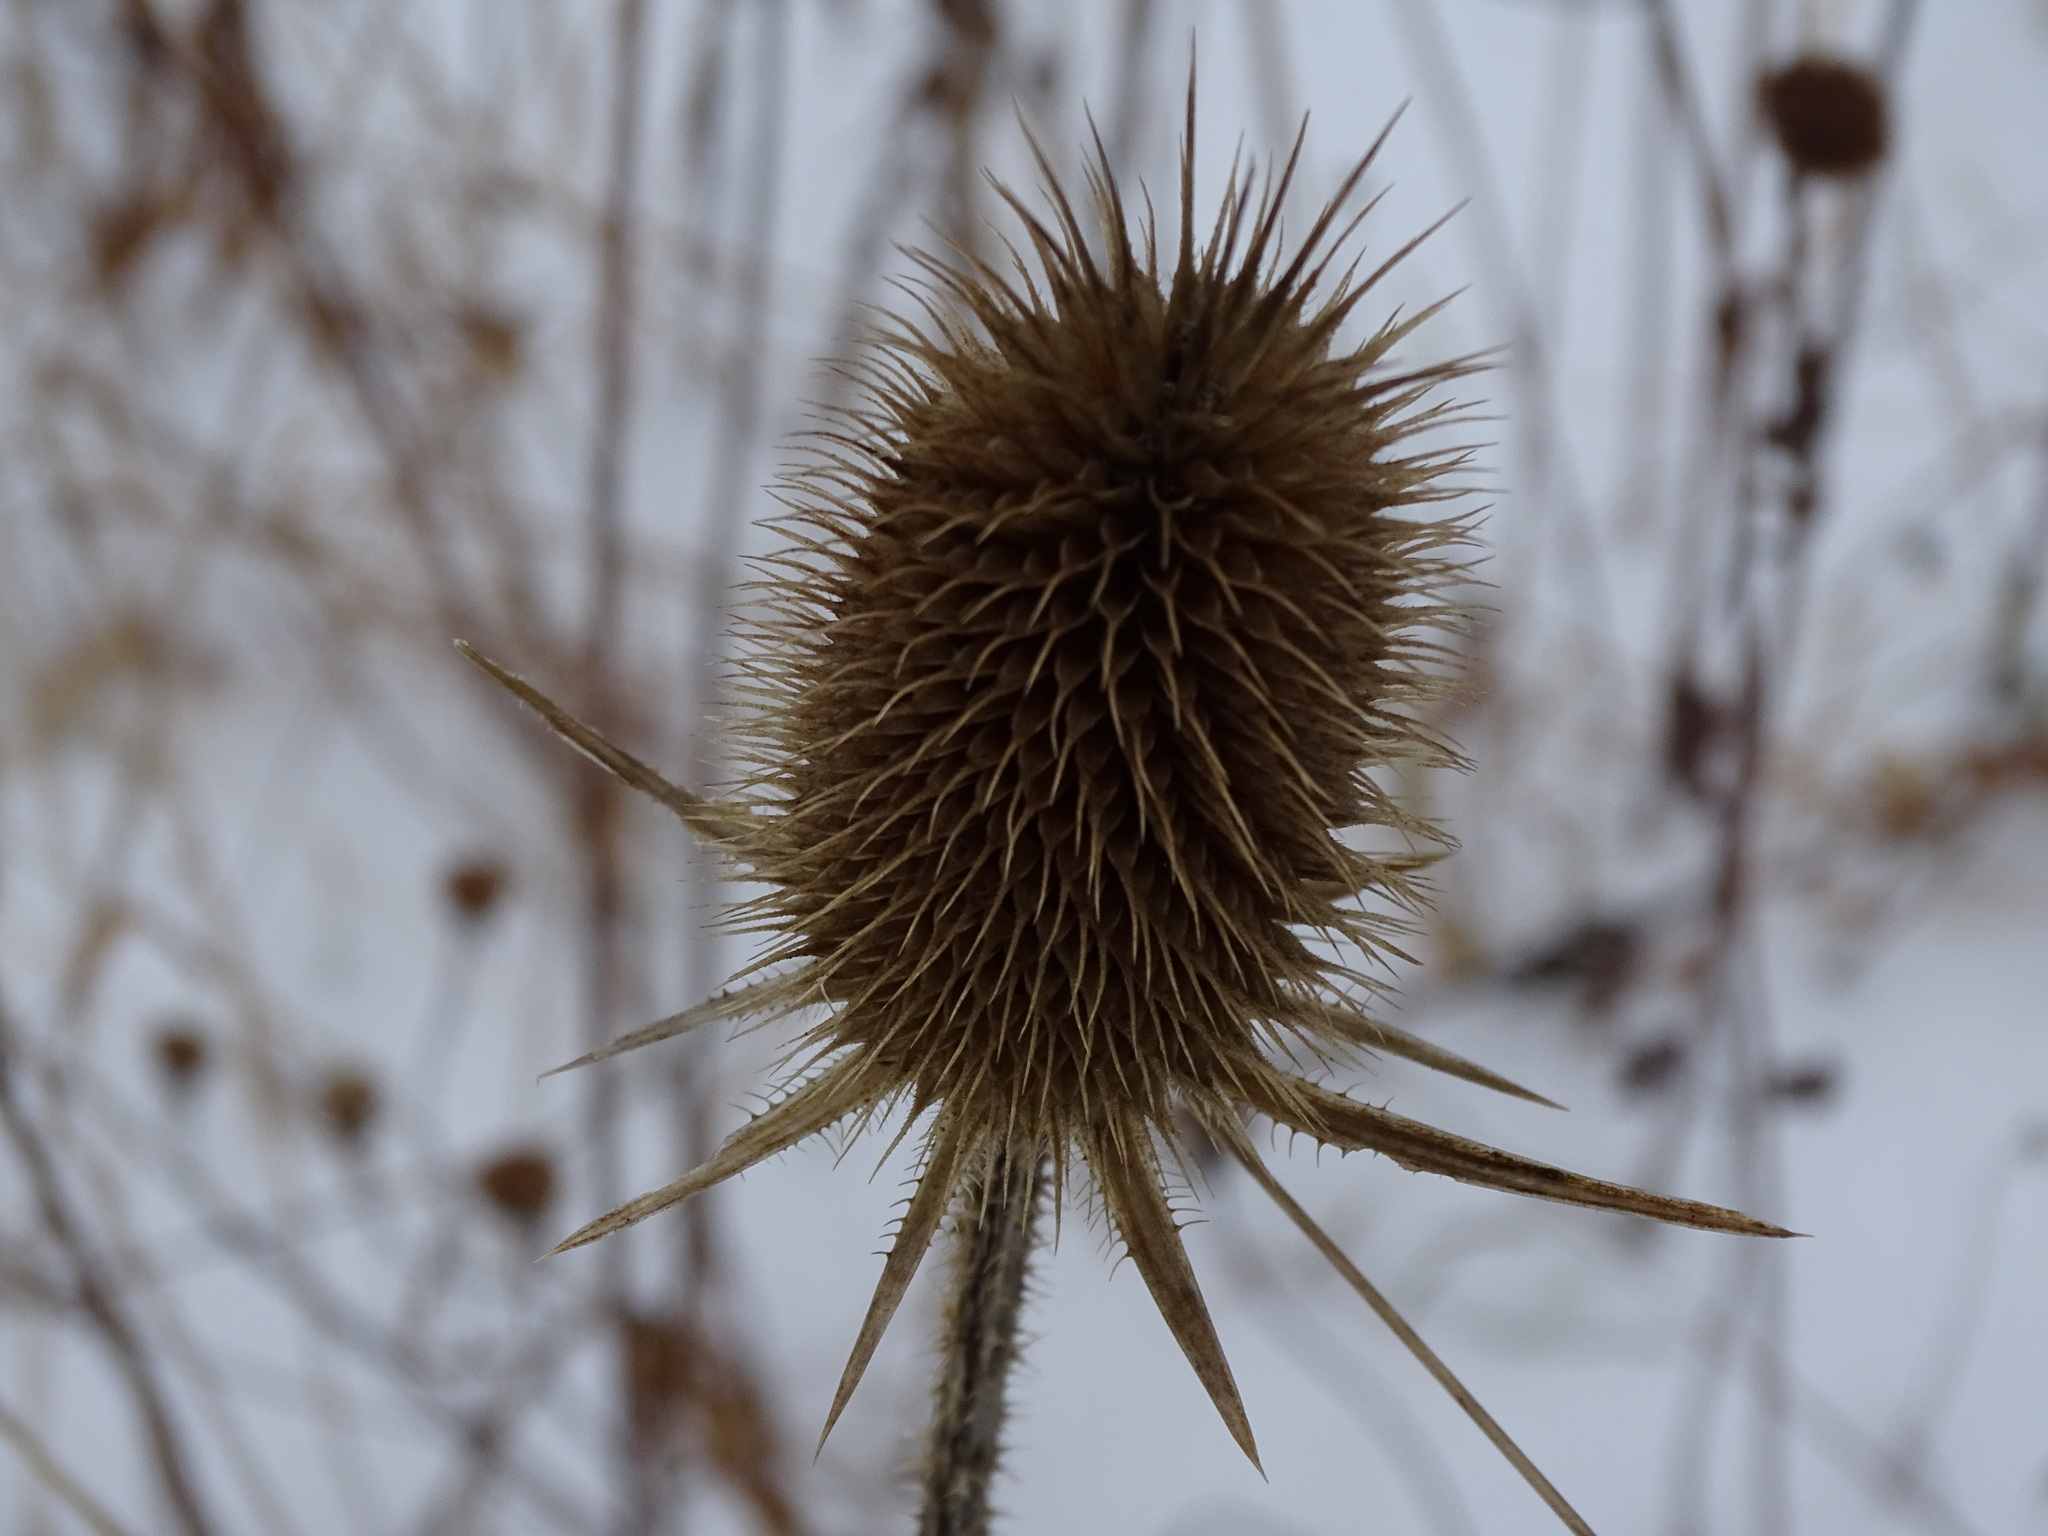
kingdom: Plantae
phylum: Tracheophyta
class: Magnoliopsida
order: Dipsacales
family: Caprifoliaceae
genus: Dipsacus
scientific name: Dipsacus laciniatus
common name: Cut-leaved teasel
